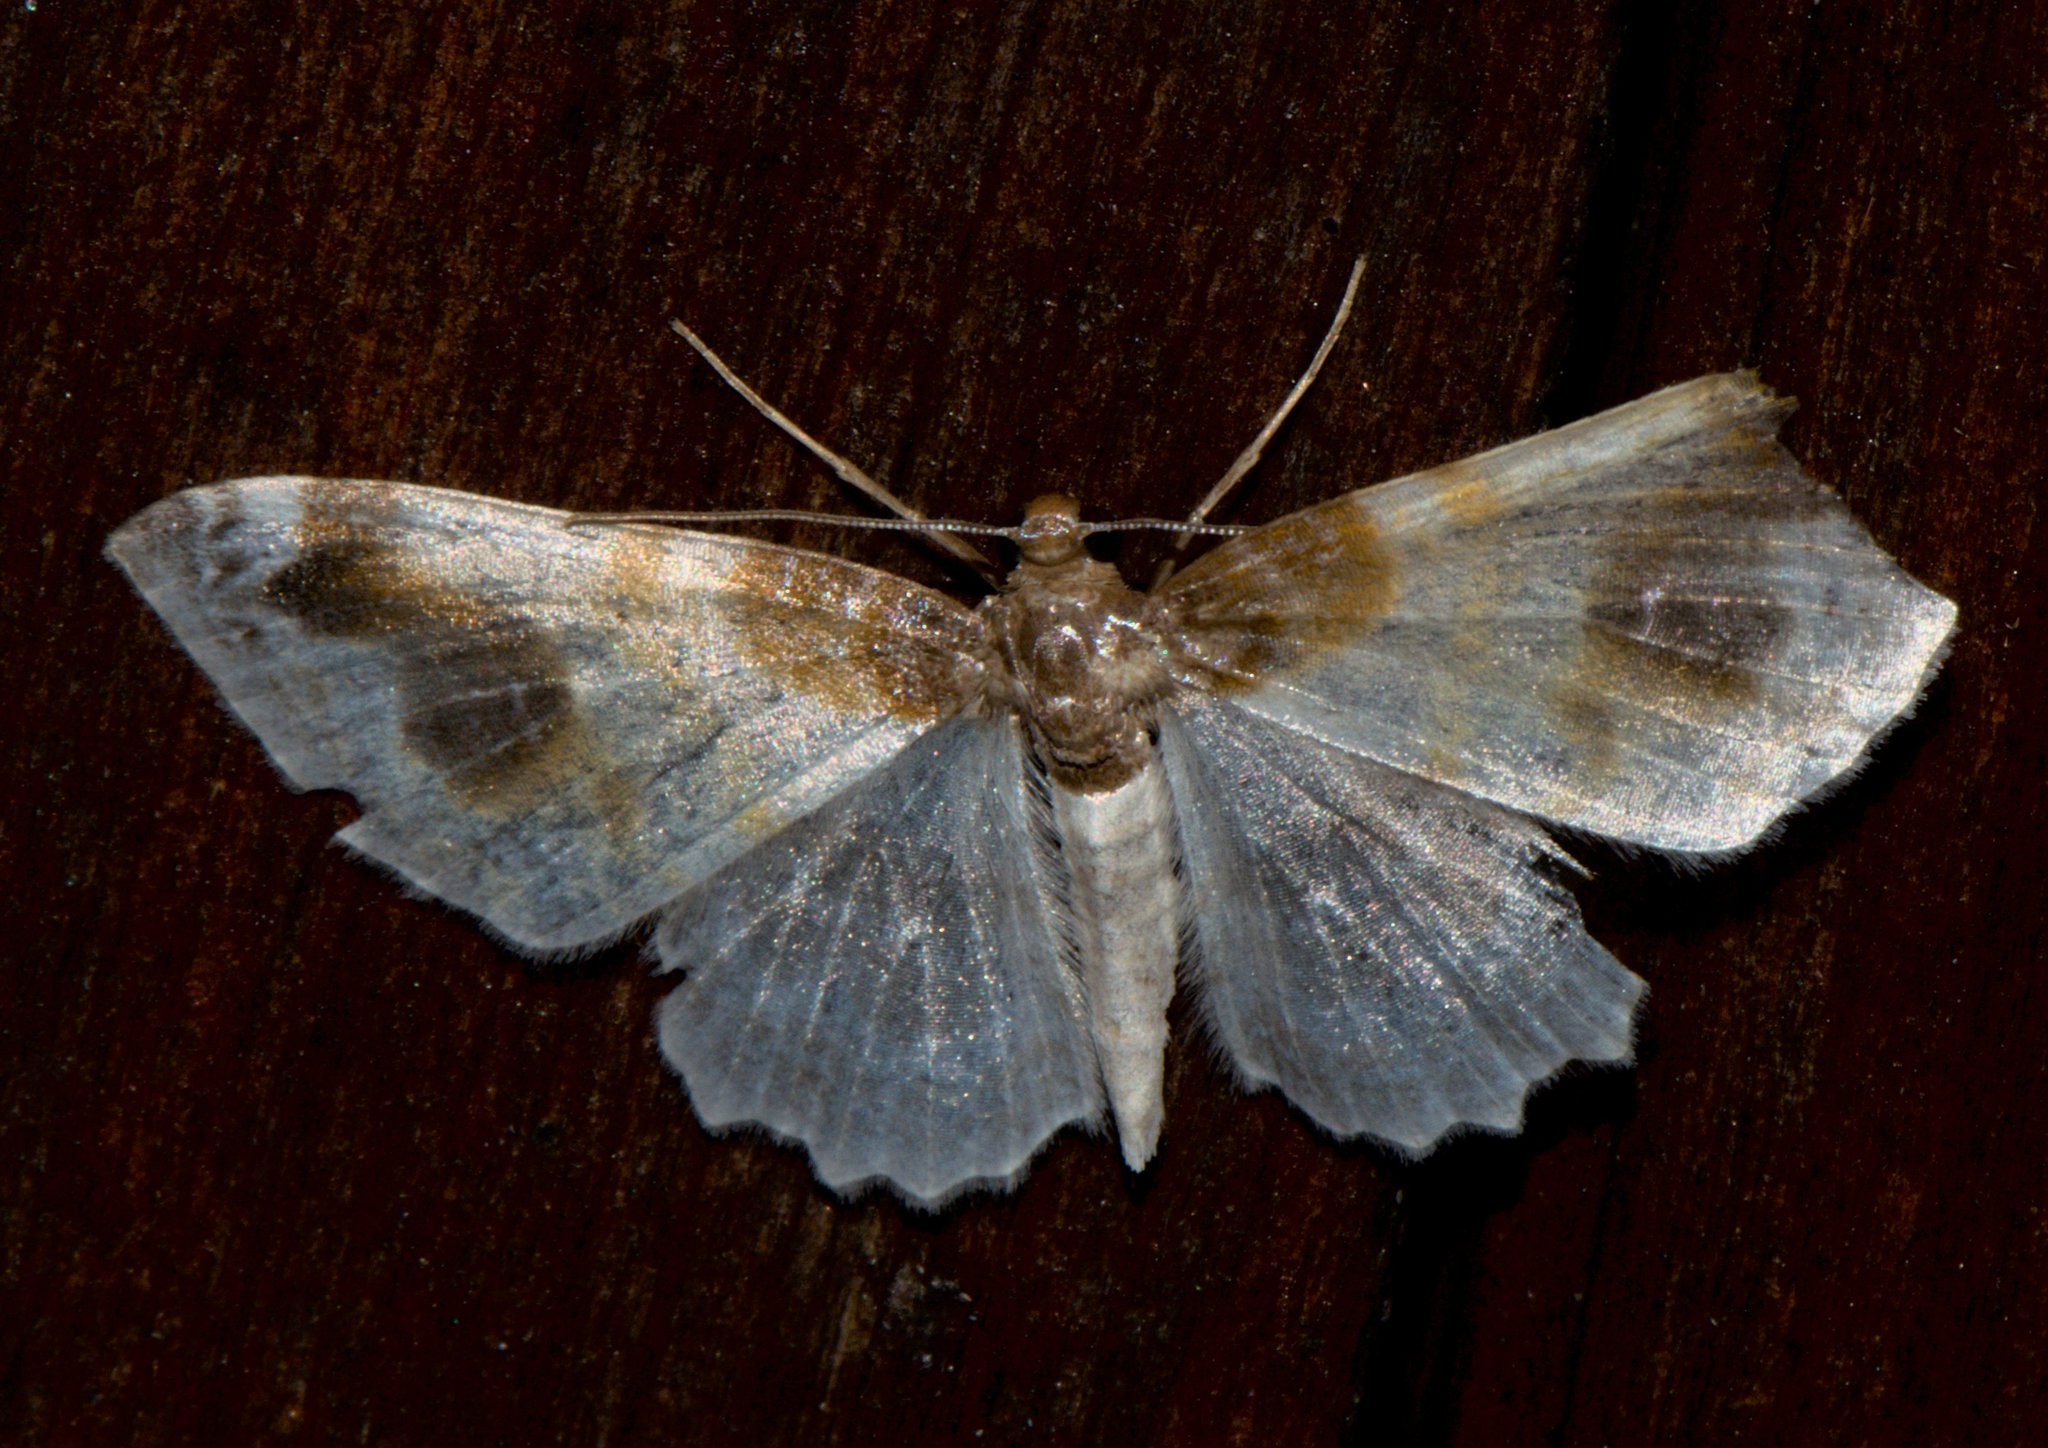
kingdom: Animalia
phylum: Arthropoda
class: Insecta
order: Lepidoptera
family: Geometridae
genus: Agnibesa
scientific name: Agnibesa pictaria
